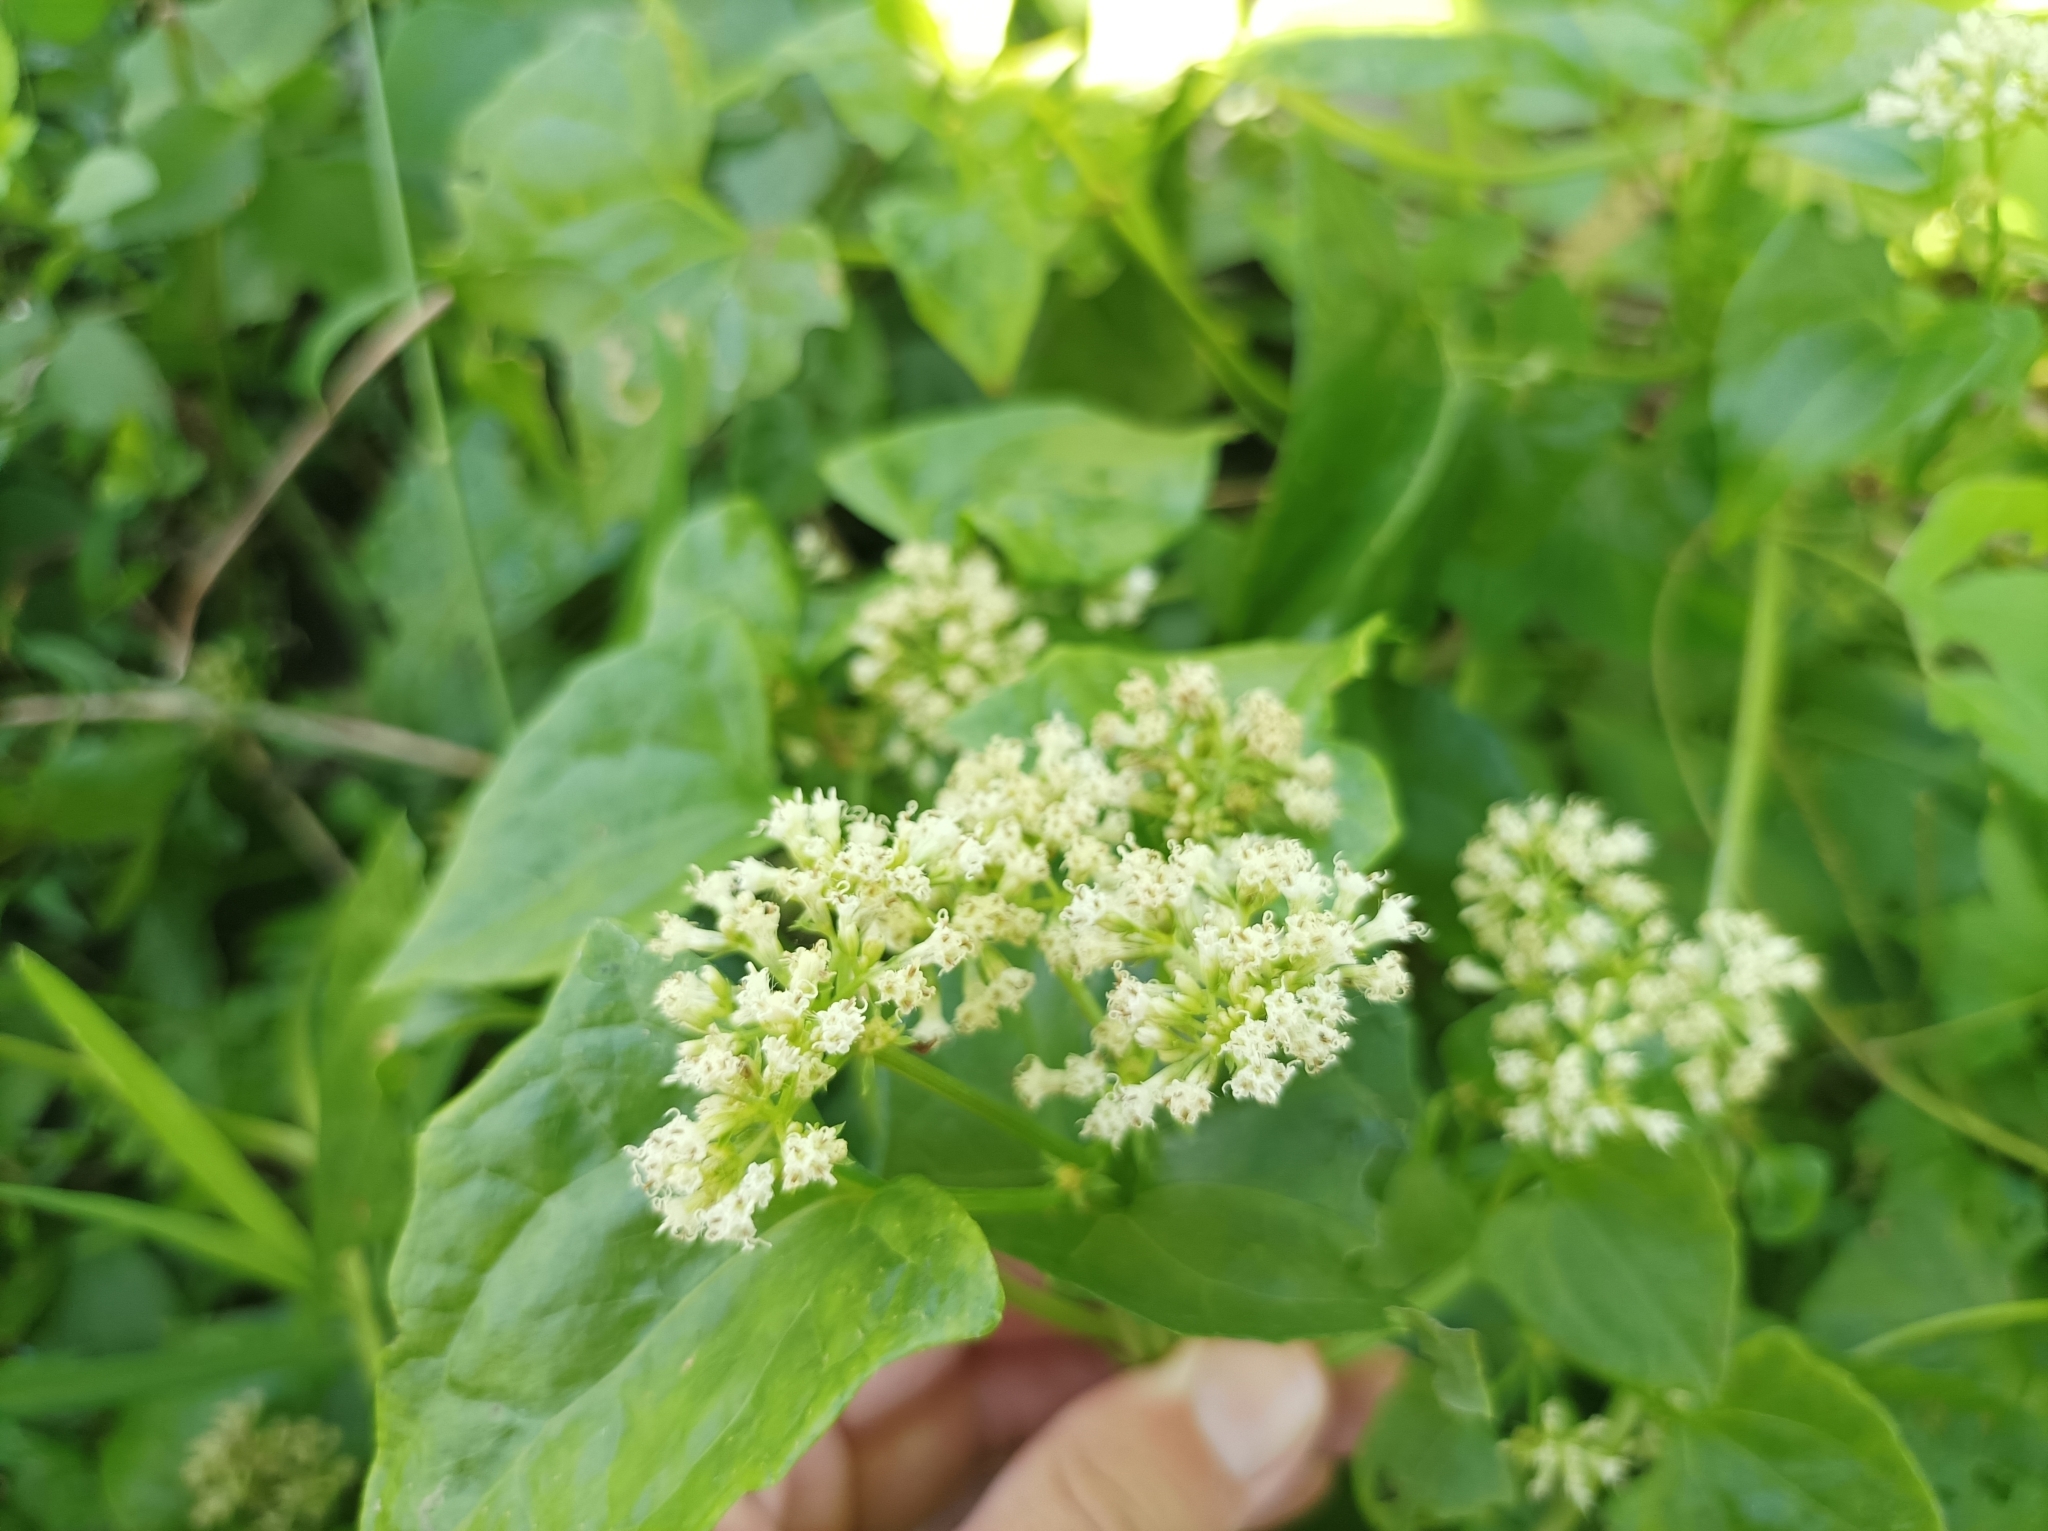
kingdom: Plantae
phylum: Tracheophyta
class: Magnoliopsida
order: Asterales
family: Asteraceae
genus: Mikania
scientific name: Mikania micrantha
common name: Mile-a-minute
